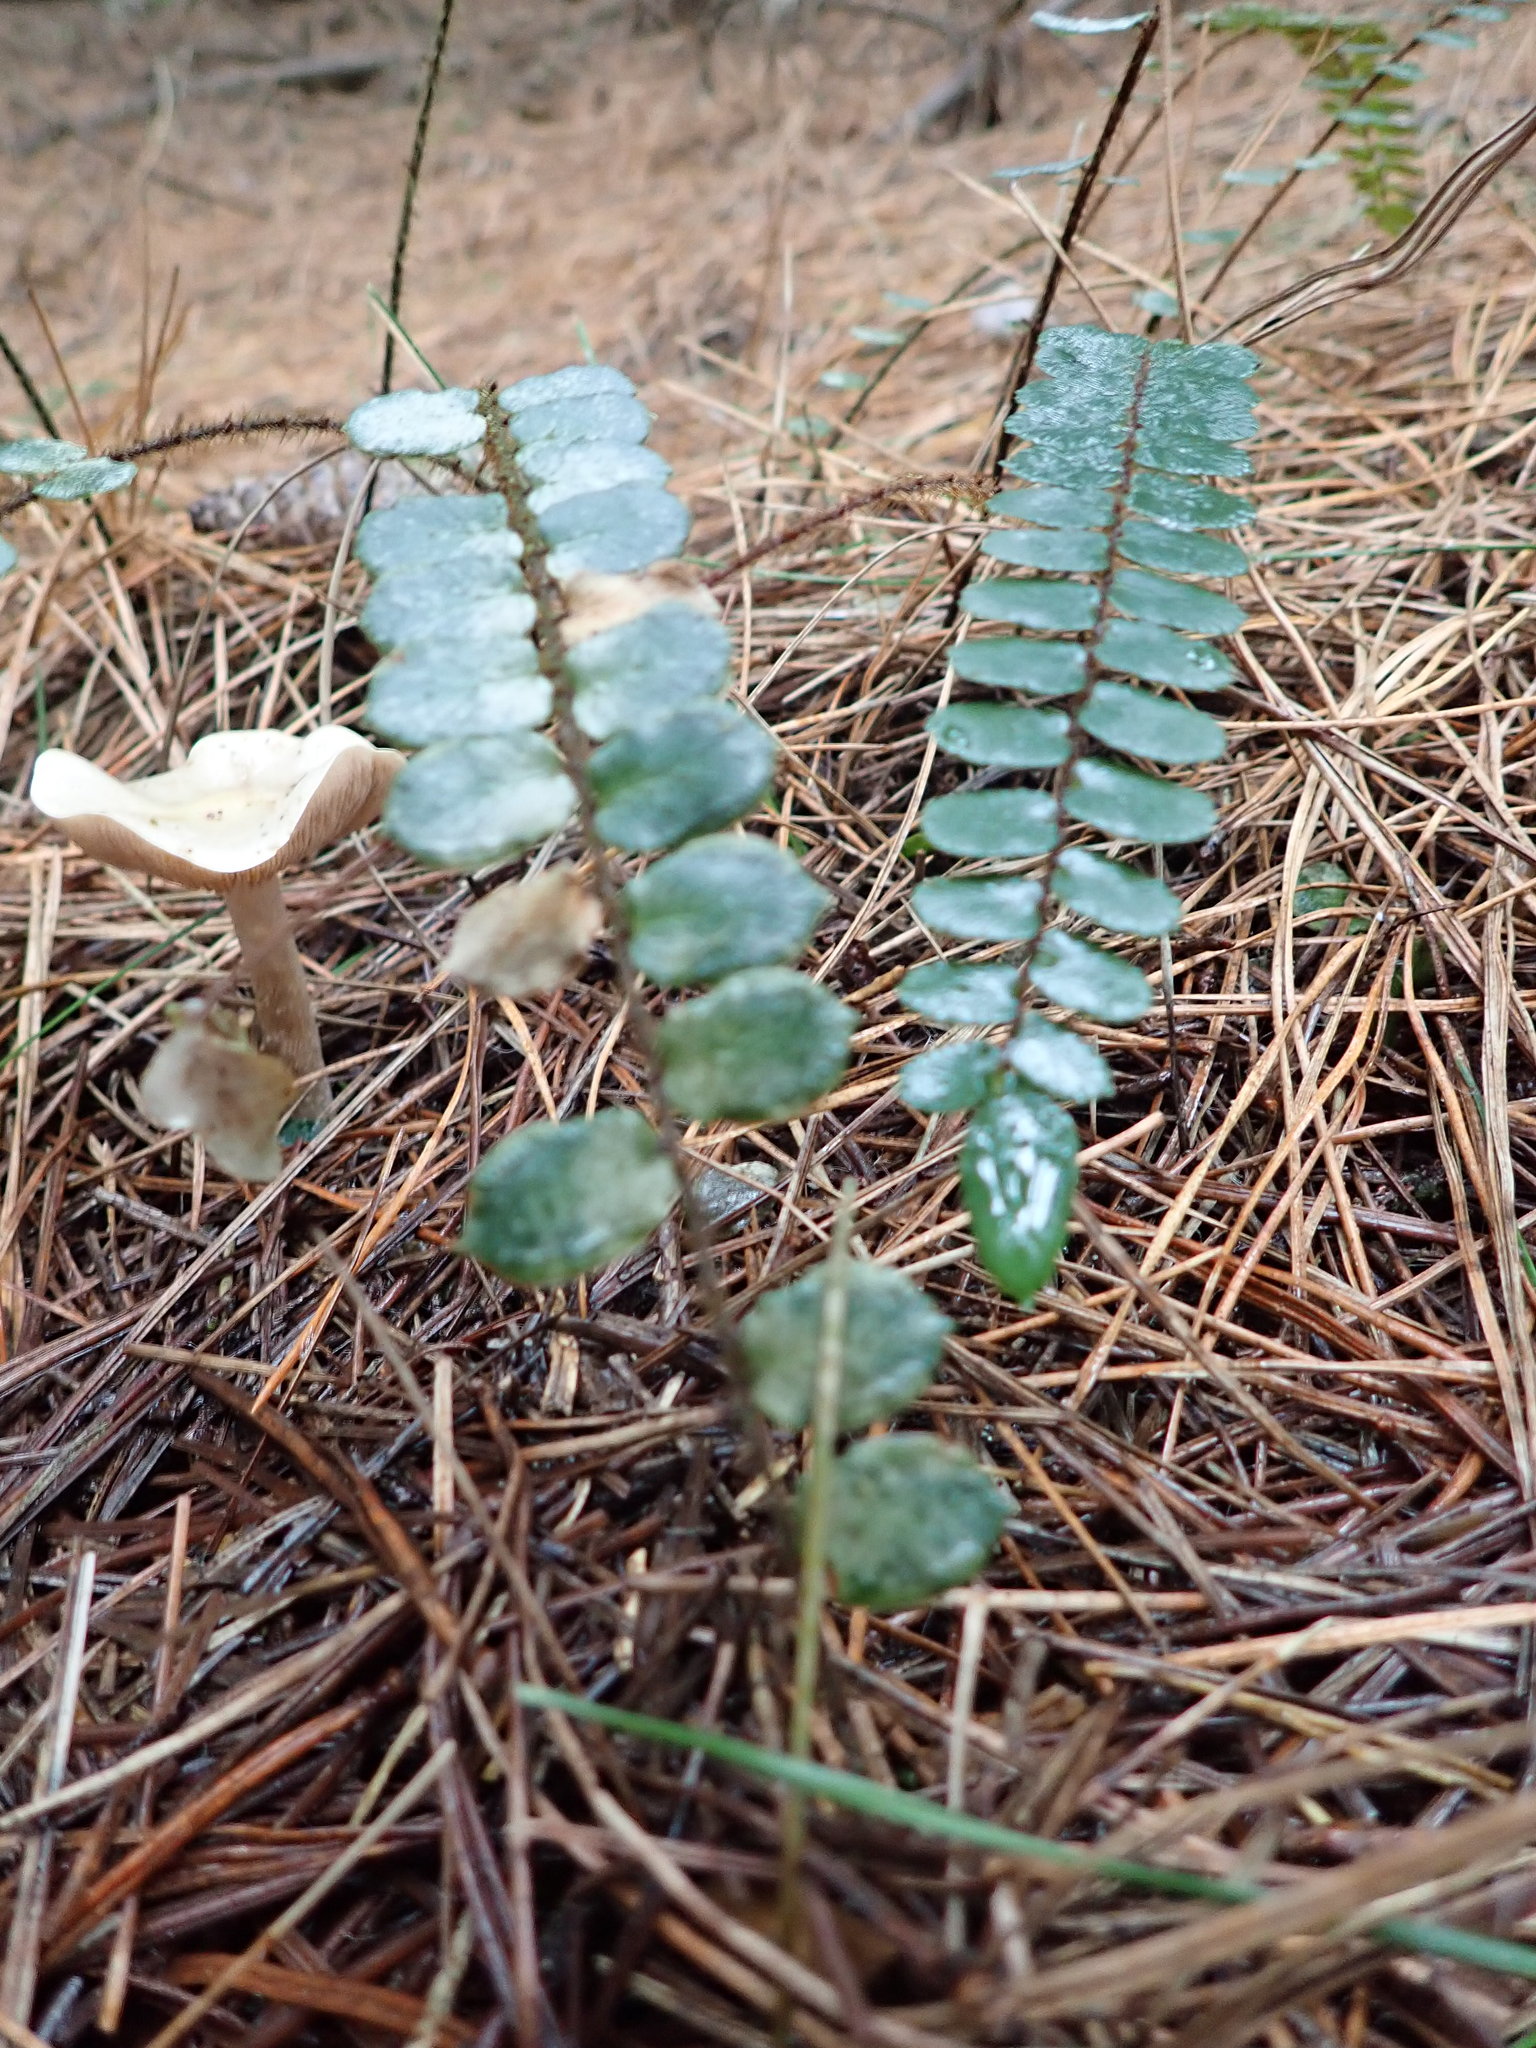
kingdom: Plantae
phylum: Tracheophyta
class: Polypodiopsida
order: Polypodiales
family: Pteridaceae
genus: Pellaea
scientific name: Pellaea rotundifolia
